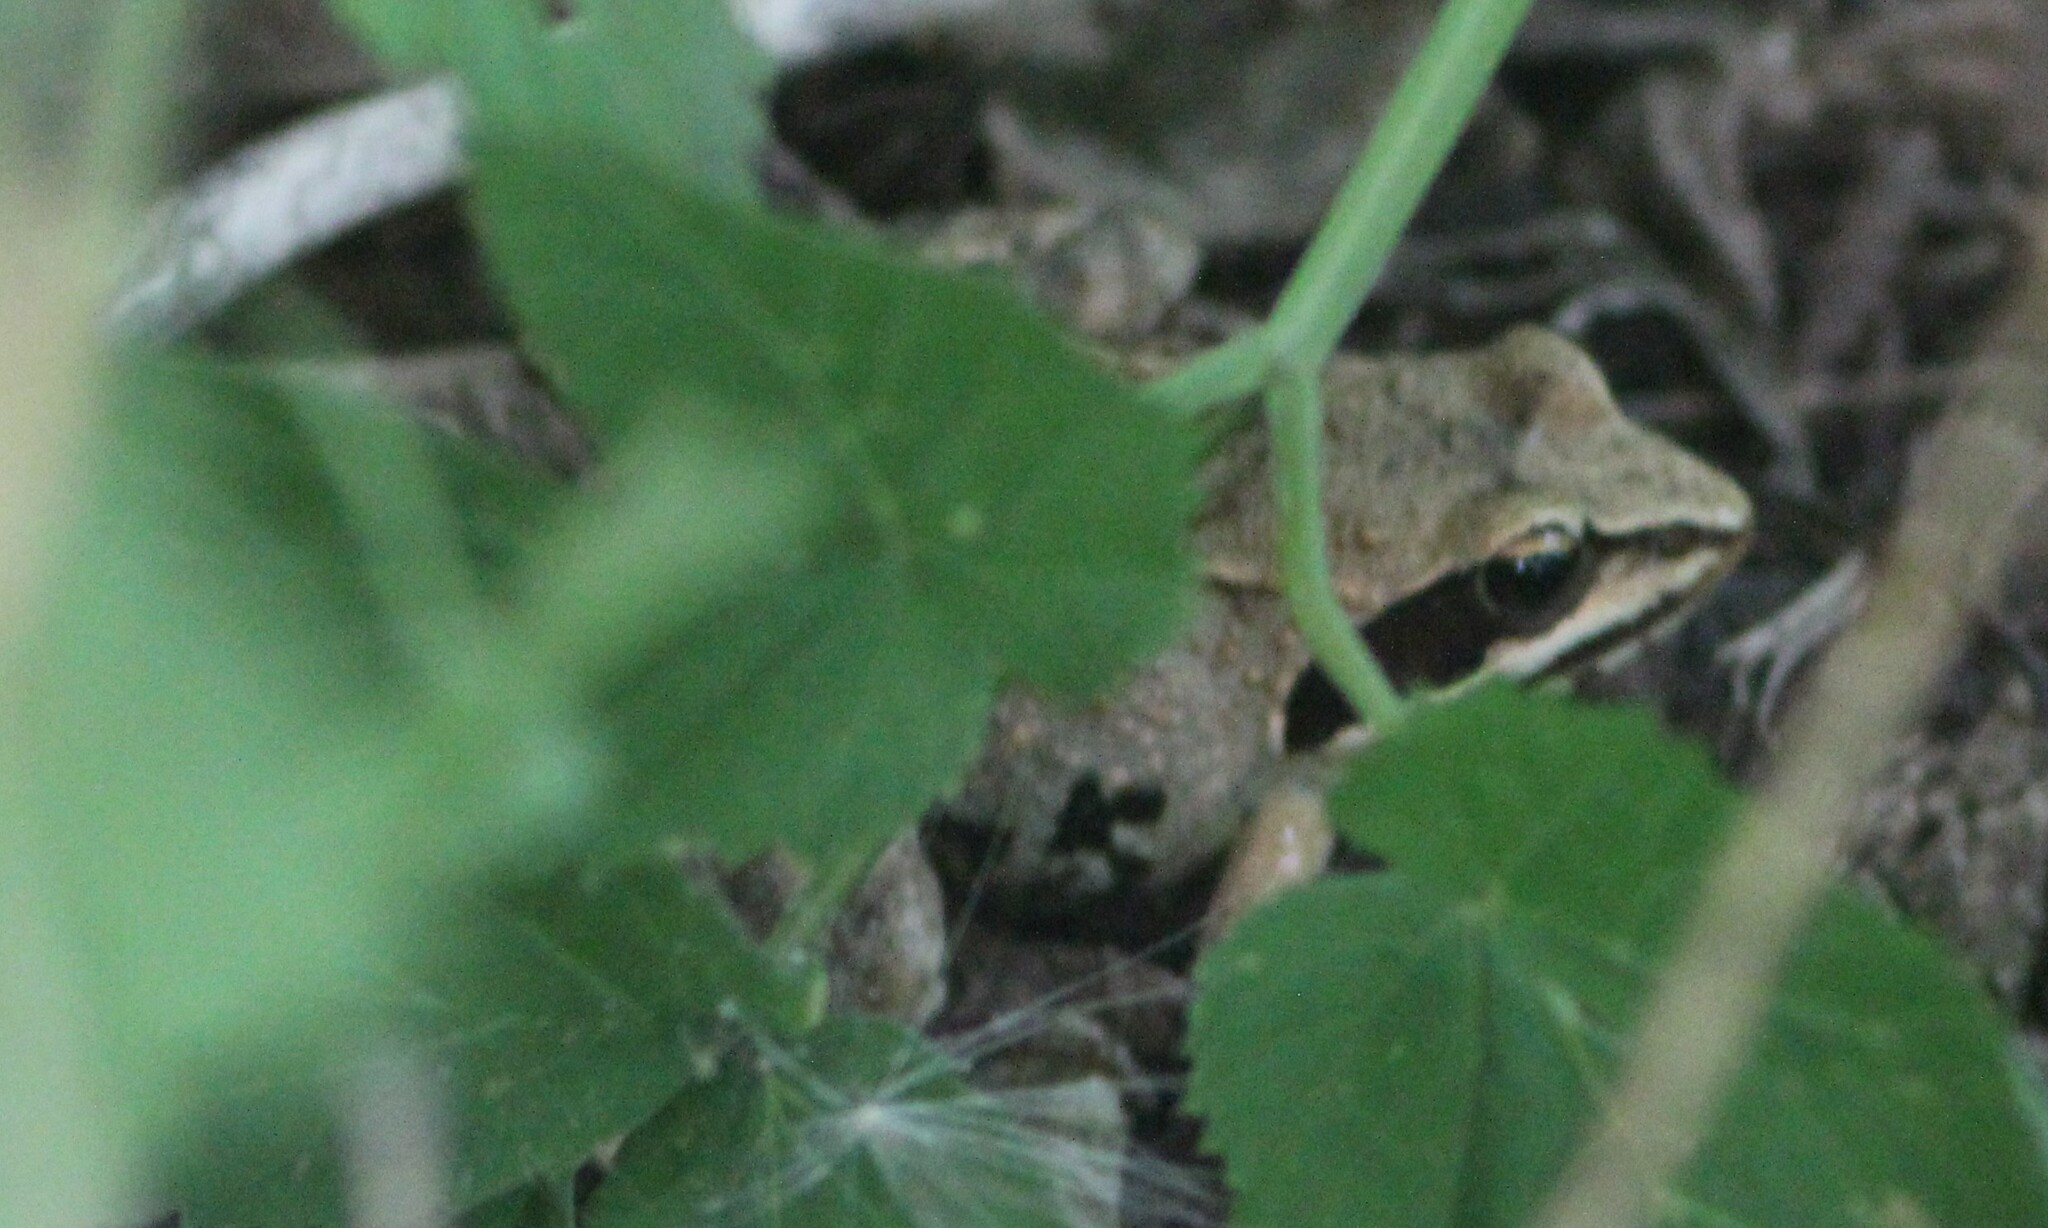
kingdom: Animalia
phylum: Chordata
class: Amphibia
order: Anura
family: Ranidae
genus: Rana
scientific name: Rana arvalis
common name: Moor frog
